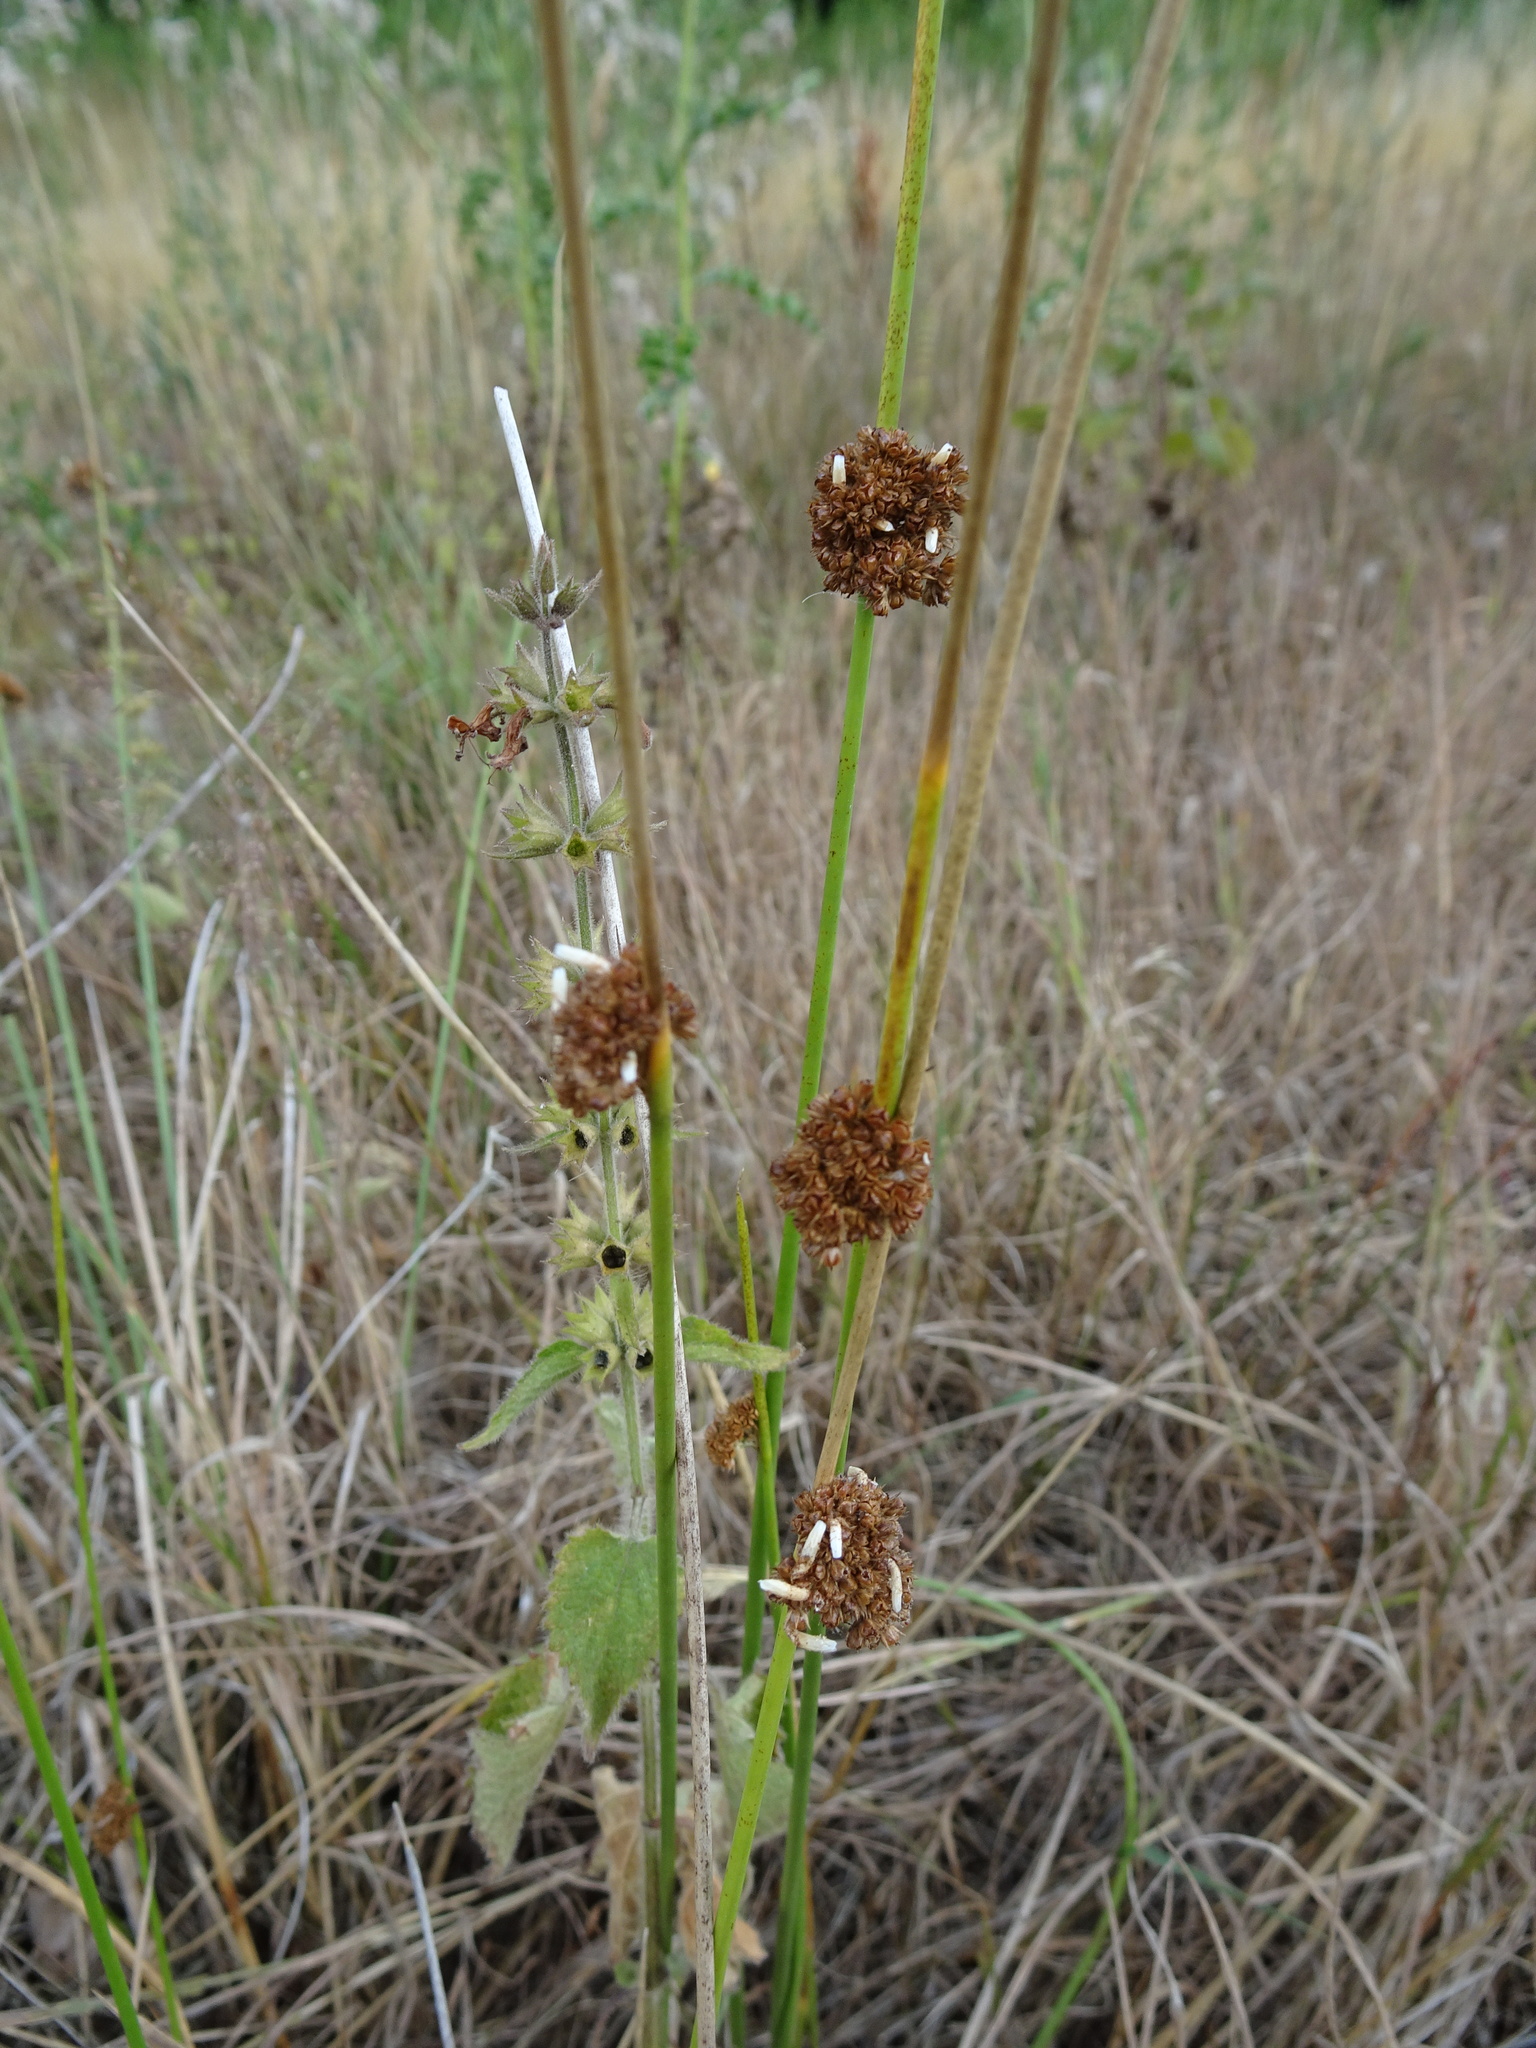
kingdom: Plantae
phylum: Tracheophyta
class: Liliopsida
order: Poales
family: Juncaceae
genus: Juncus
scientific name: Juncus conglomeratus
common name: Compact rush
